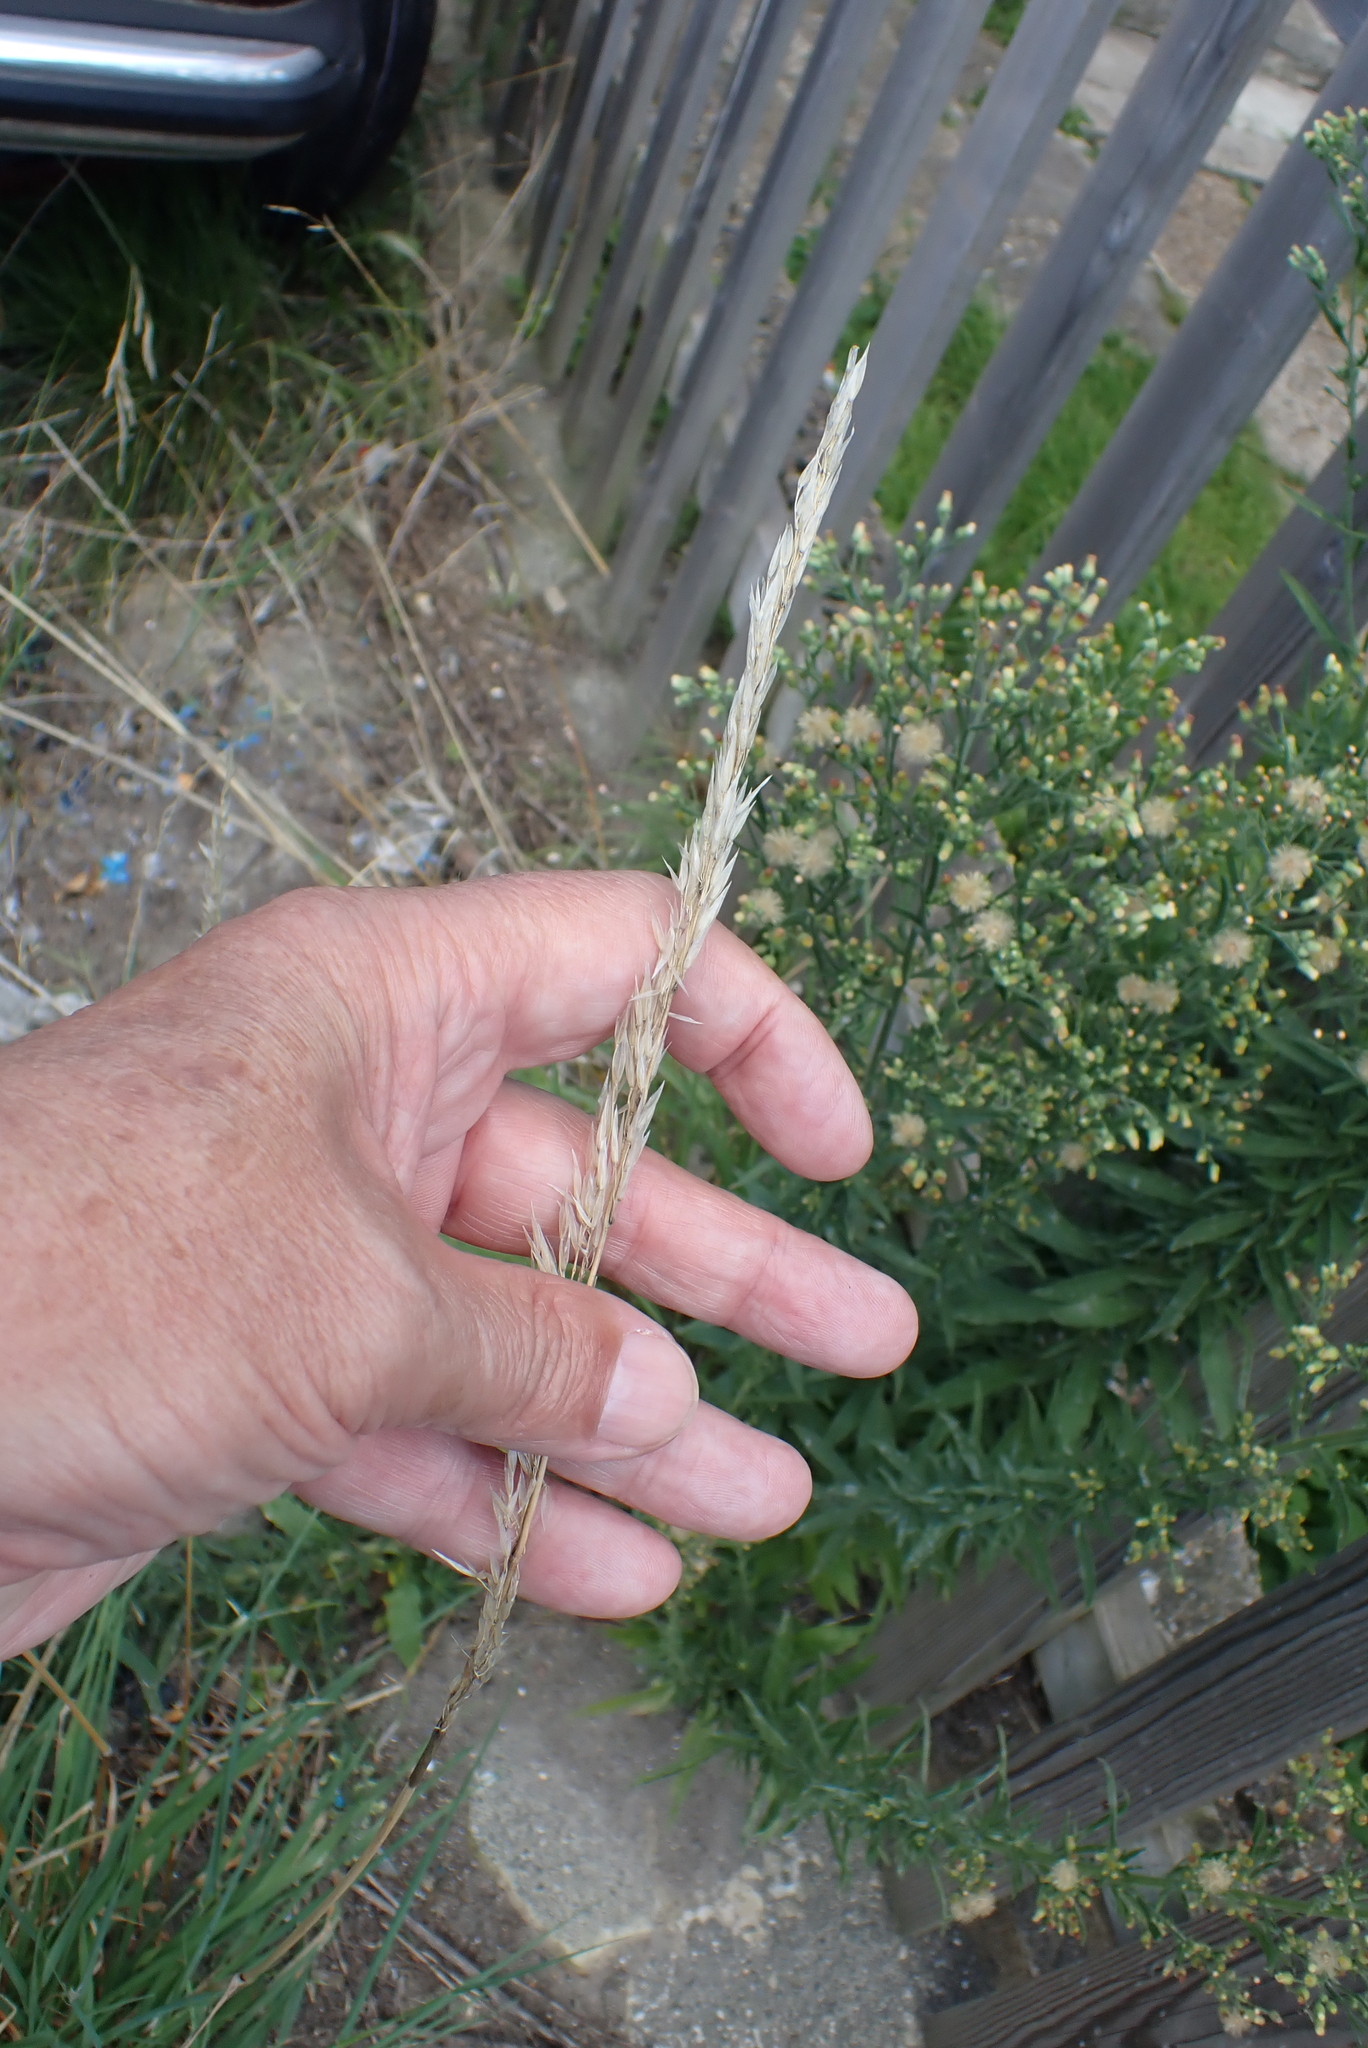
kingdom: Plantae
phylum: Tracheophyta
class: Liliopsida
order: Poales
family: Poaceae
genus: Arrhenatherum
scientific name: Arrhenatherum elatius
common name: Tall oatgrass
